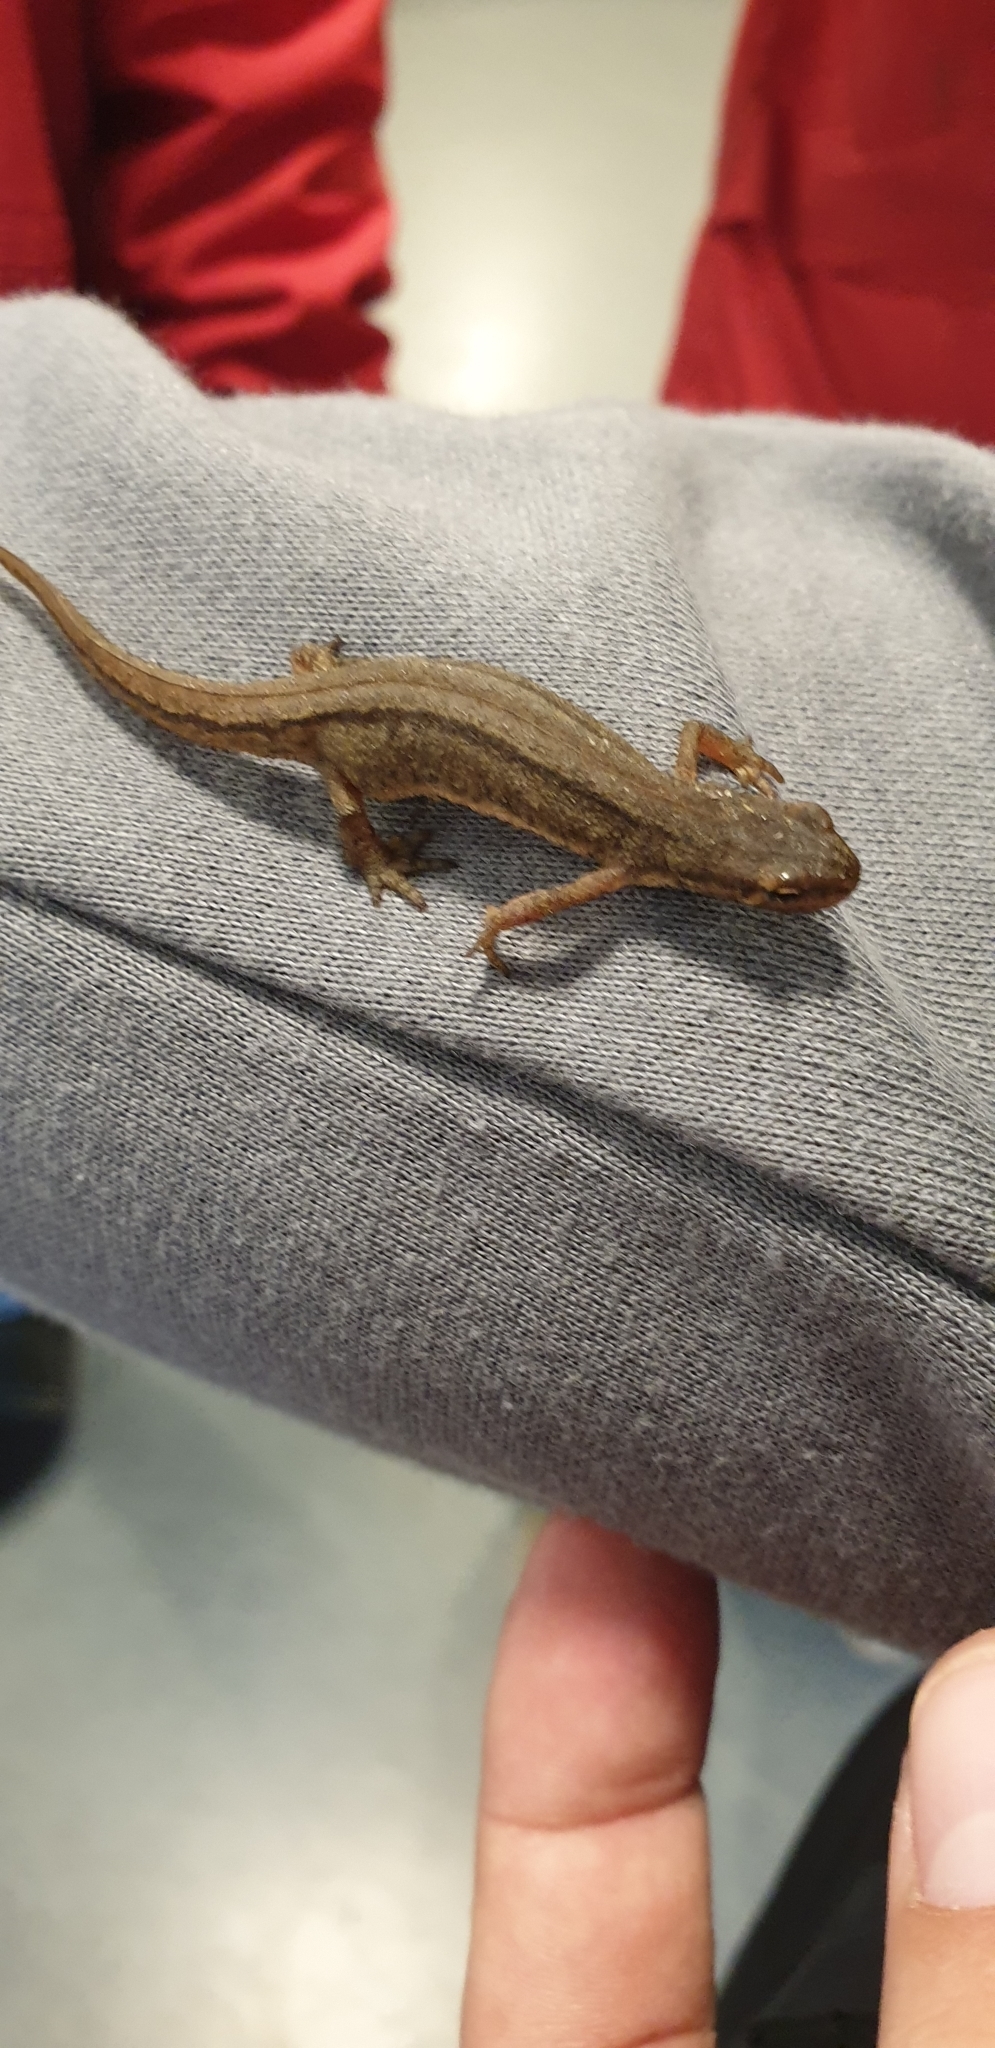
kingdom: Animalia
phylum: Chordata
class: Amphibia
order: Caudata
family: Salamandridae
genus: Lissotriton
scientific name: Lissotriton vulgaris
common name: Smooth newt
